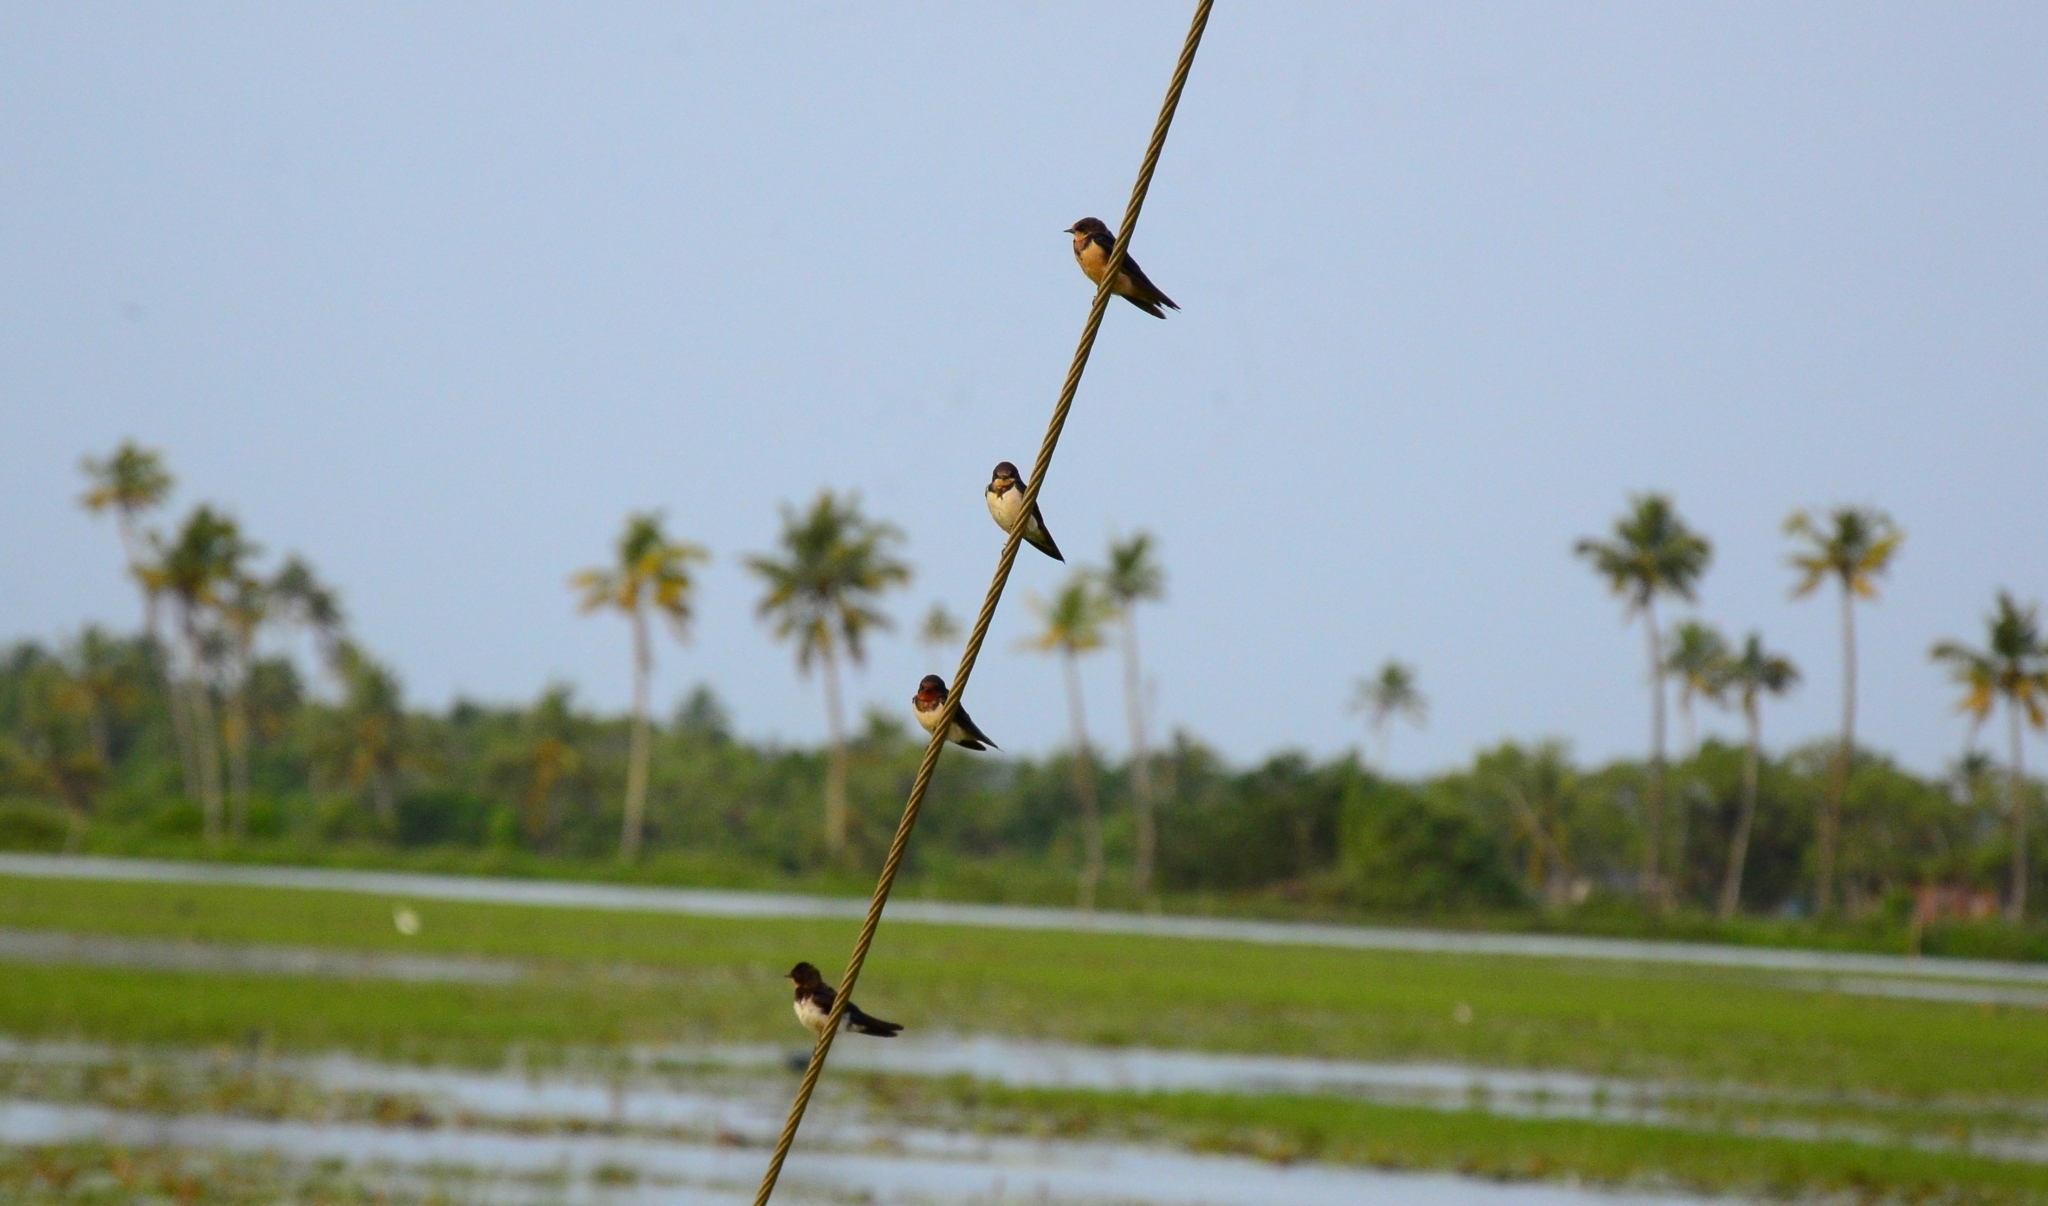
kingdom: Animalia
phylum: Chordata
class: Aves
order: Passeriformes
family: Hirundinidae
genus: Hirundo
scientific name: Hirundo rustica
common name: Barn swallow
